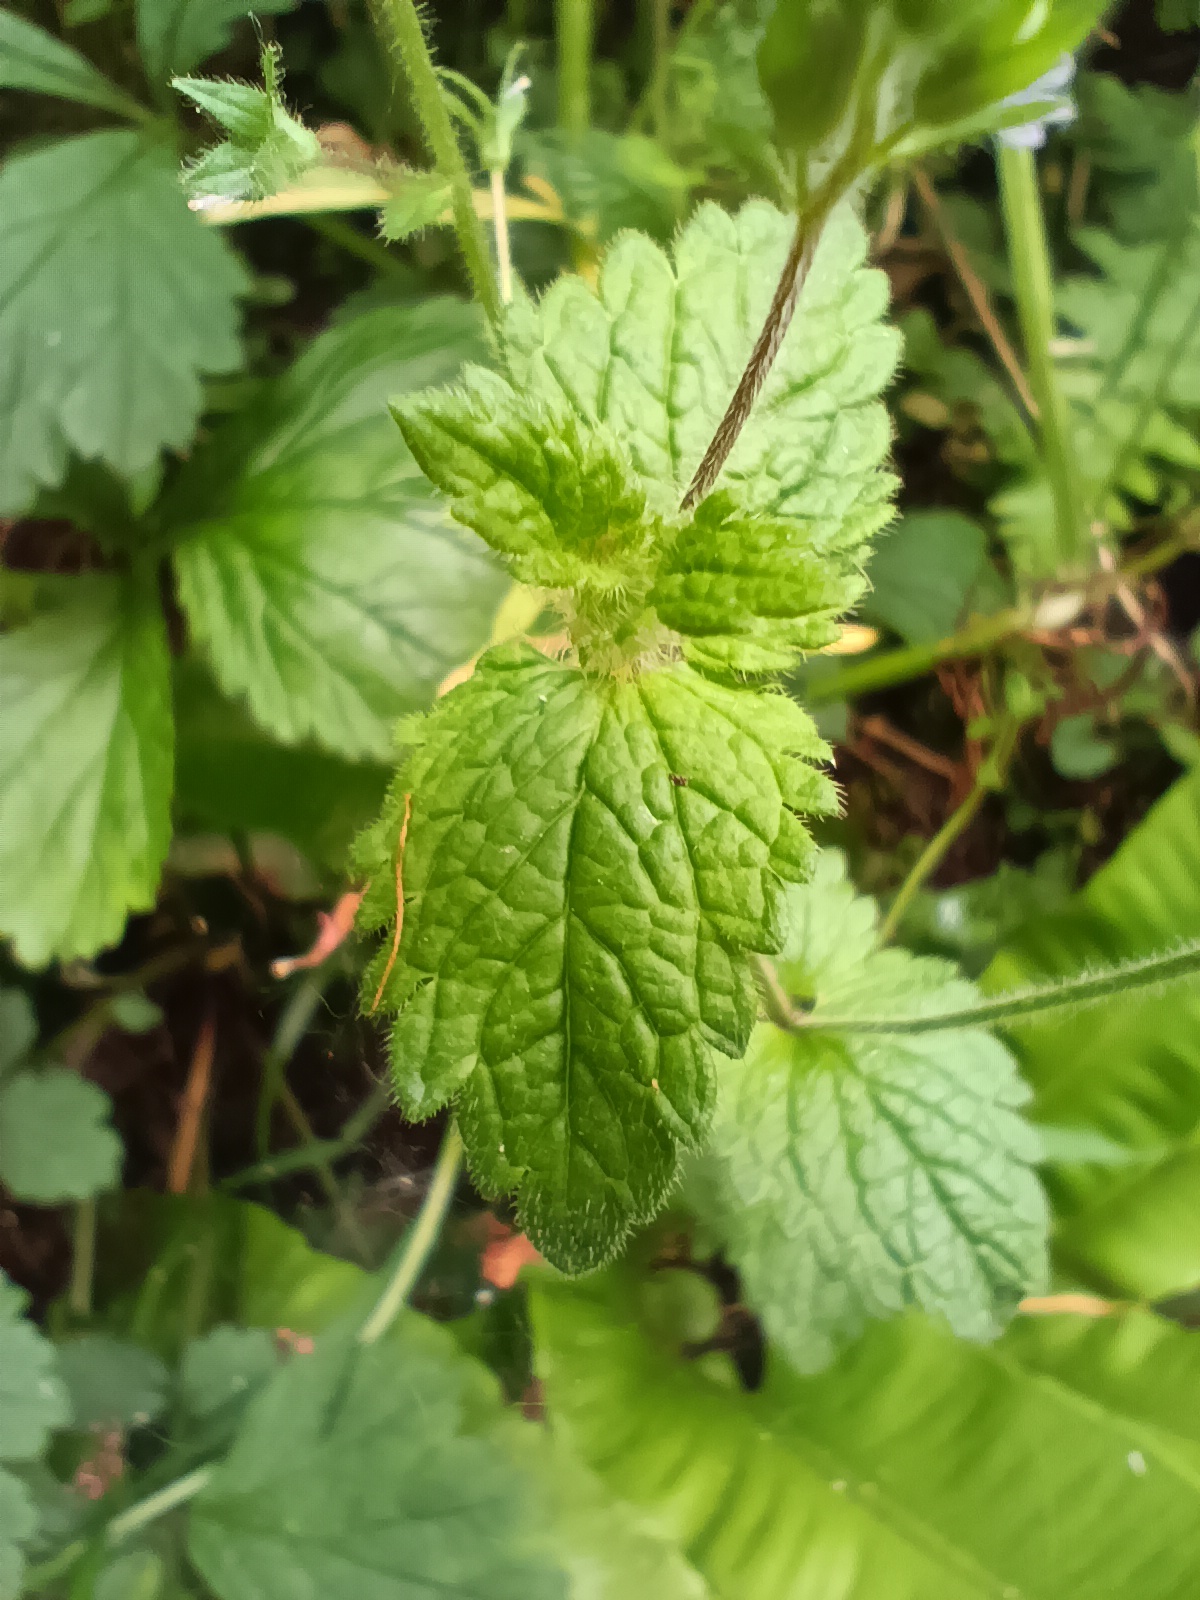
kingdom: Plantae
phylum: Tracheophyta
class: Magnoliopsida
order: Lamiales
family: Plantaginaceae
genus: Veronica
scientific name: Veronica chamaedrys
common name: Germander speedwell
